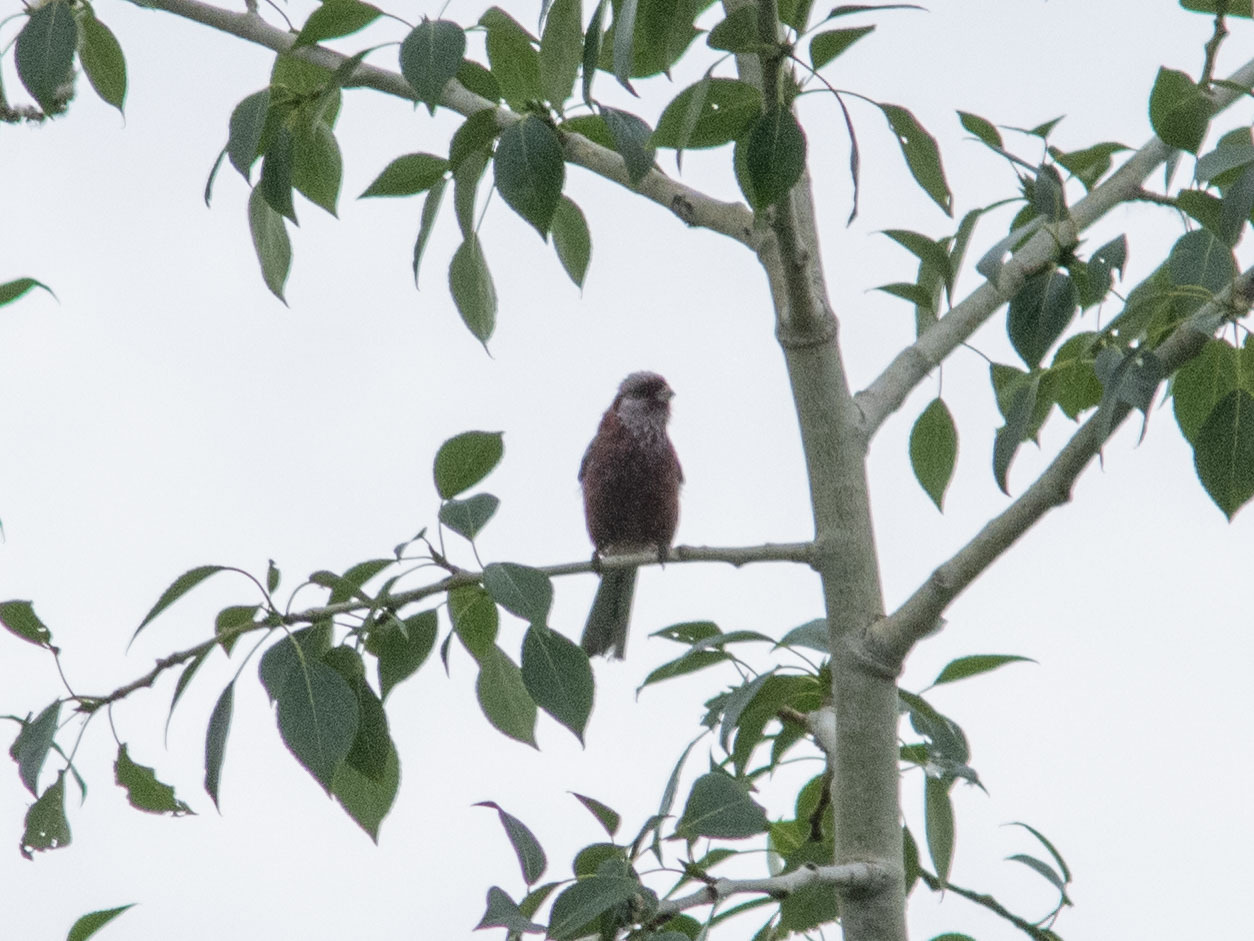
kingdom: Animalia
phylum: Chordata
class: Aves
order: Passeriformes
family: Fringillidae
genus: Carpodacus
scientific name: Carpodacus sibiricus
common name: Long-tailed rosefinch
